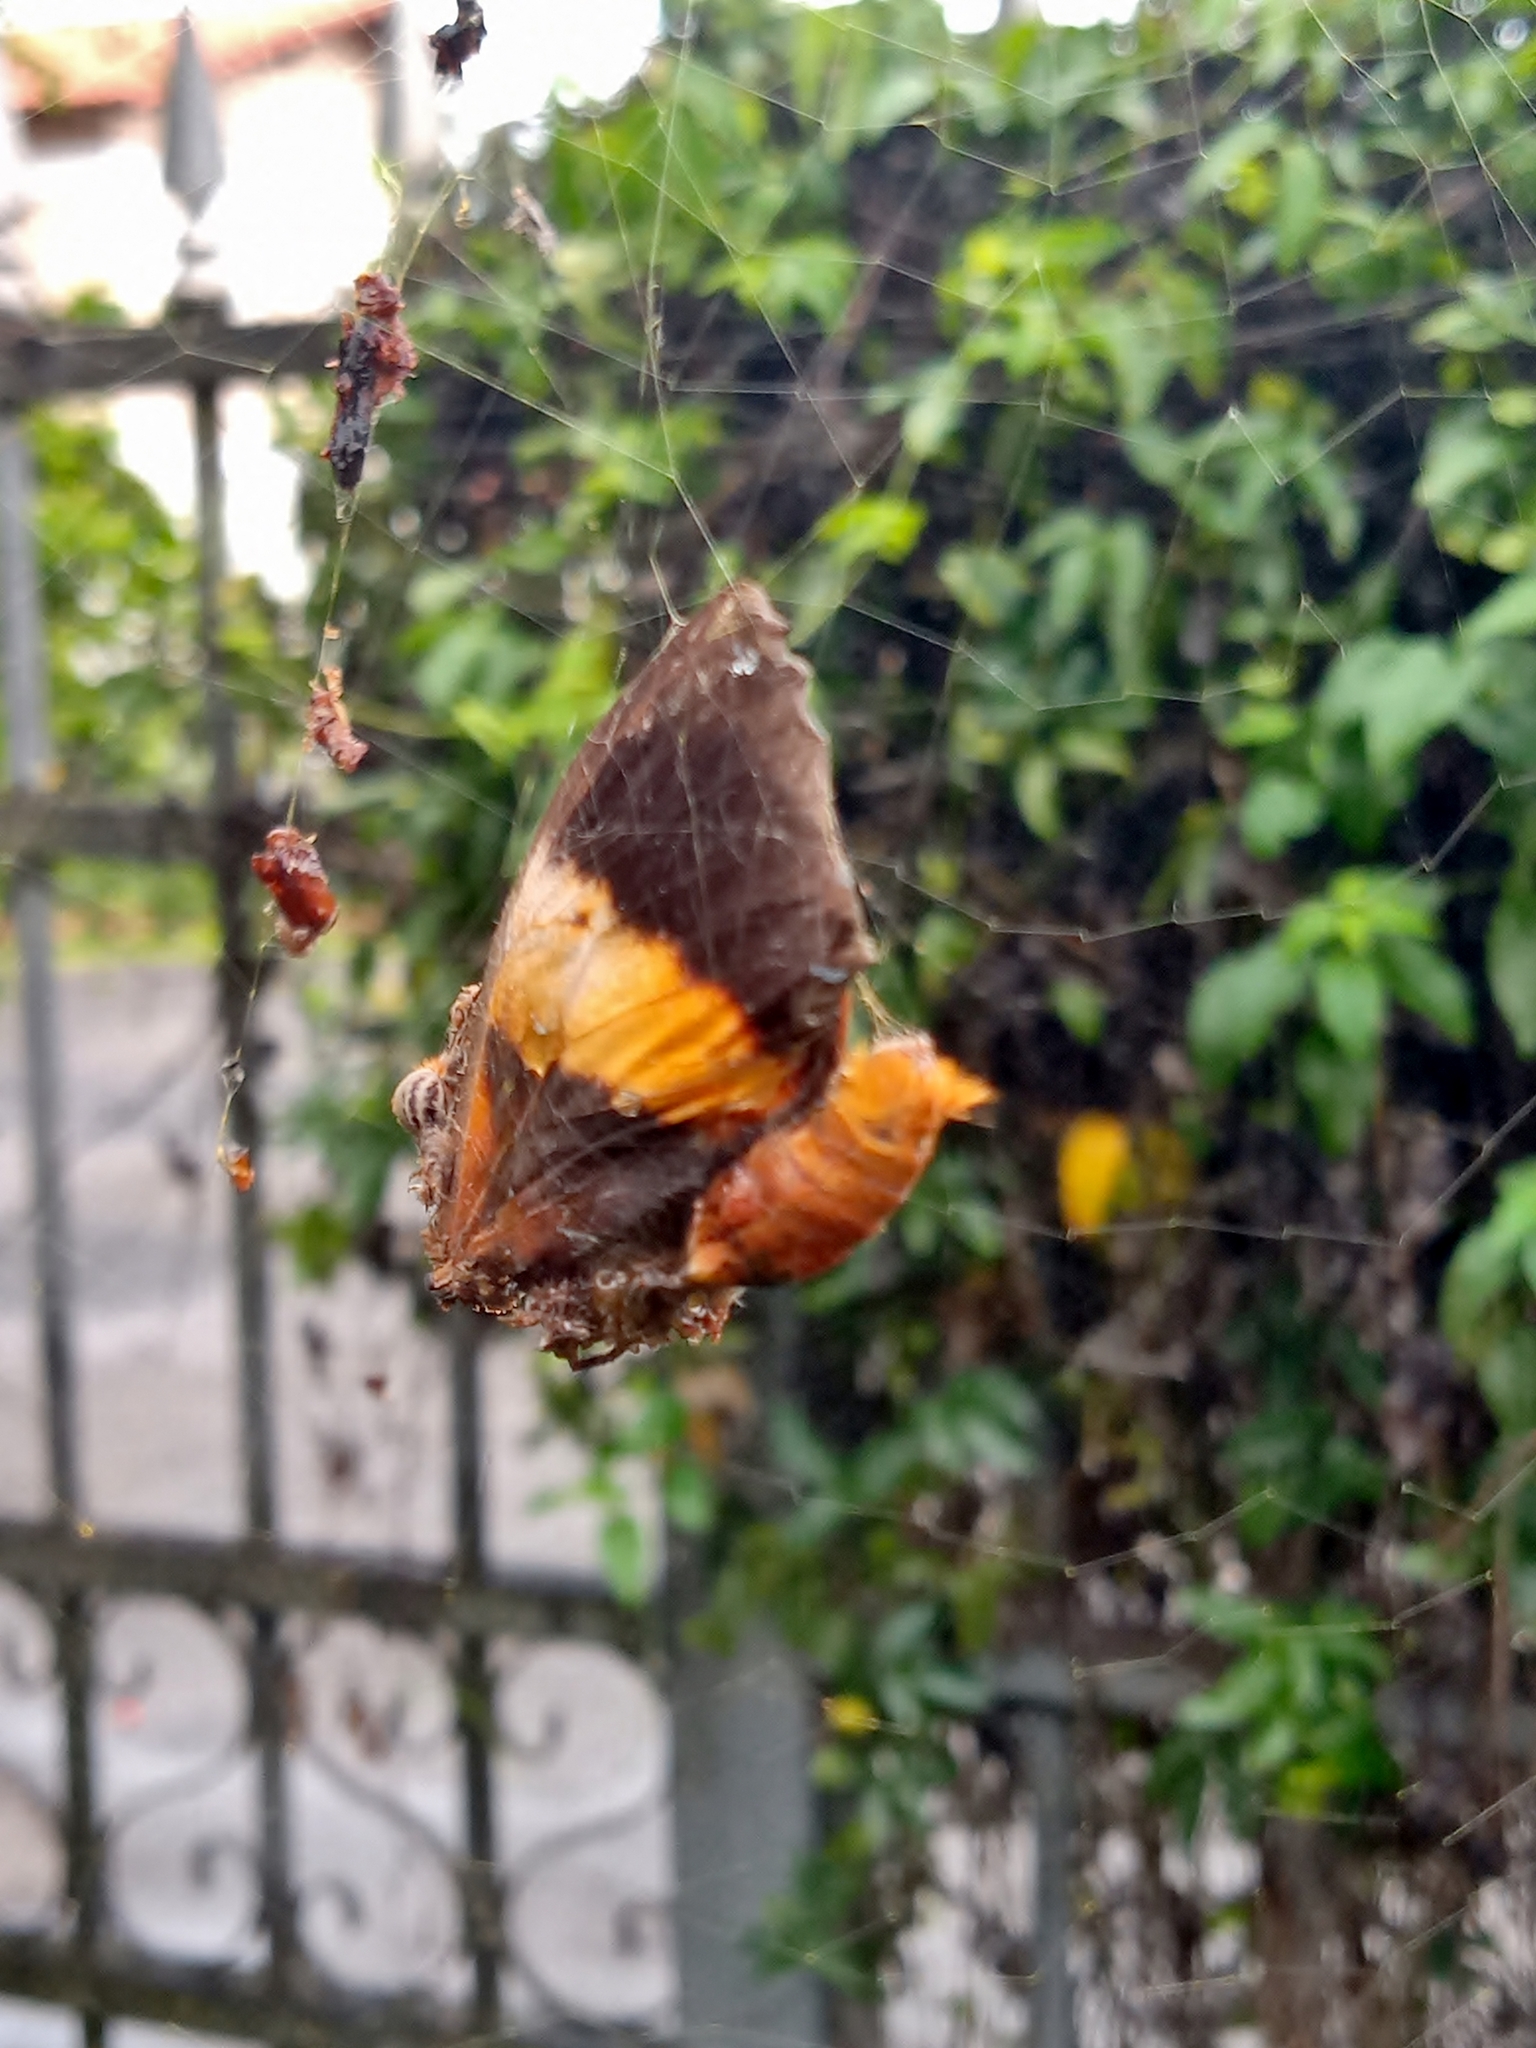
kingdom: Animalia
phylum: Arthropoda
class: Insecta
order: Lepidoptera
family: Nymphalidae
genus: Brassolis
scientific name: Brassolis sophorae
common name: Coconut caterpillar
